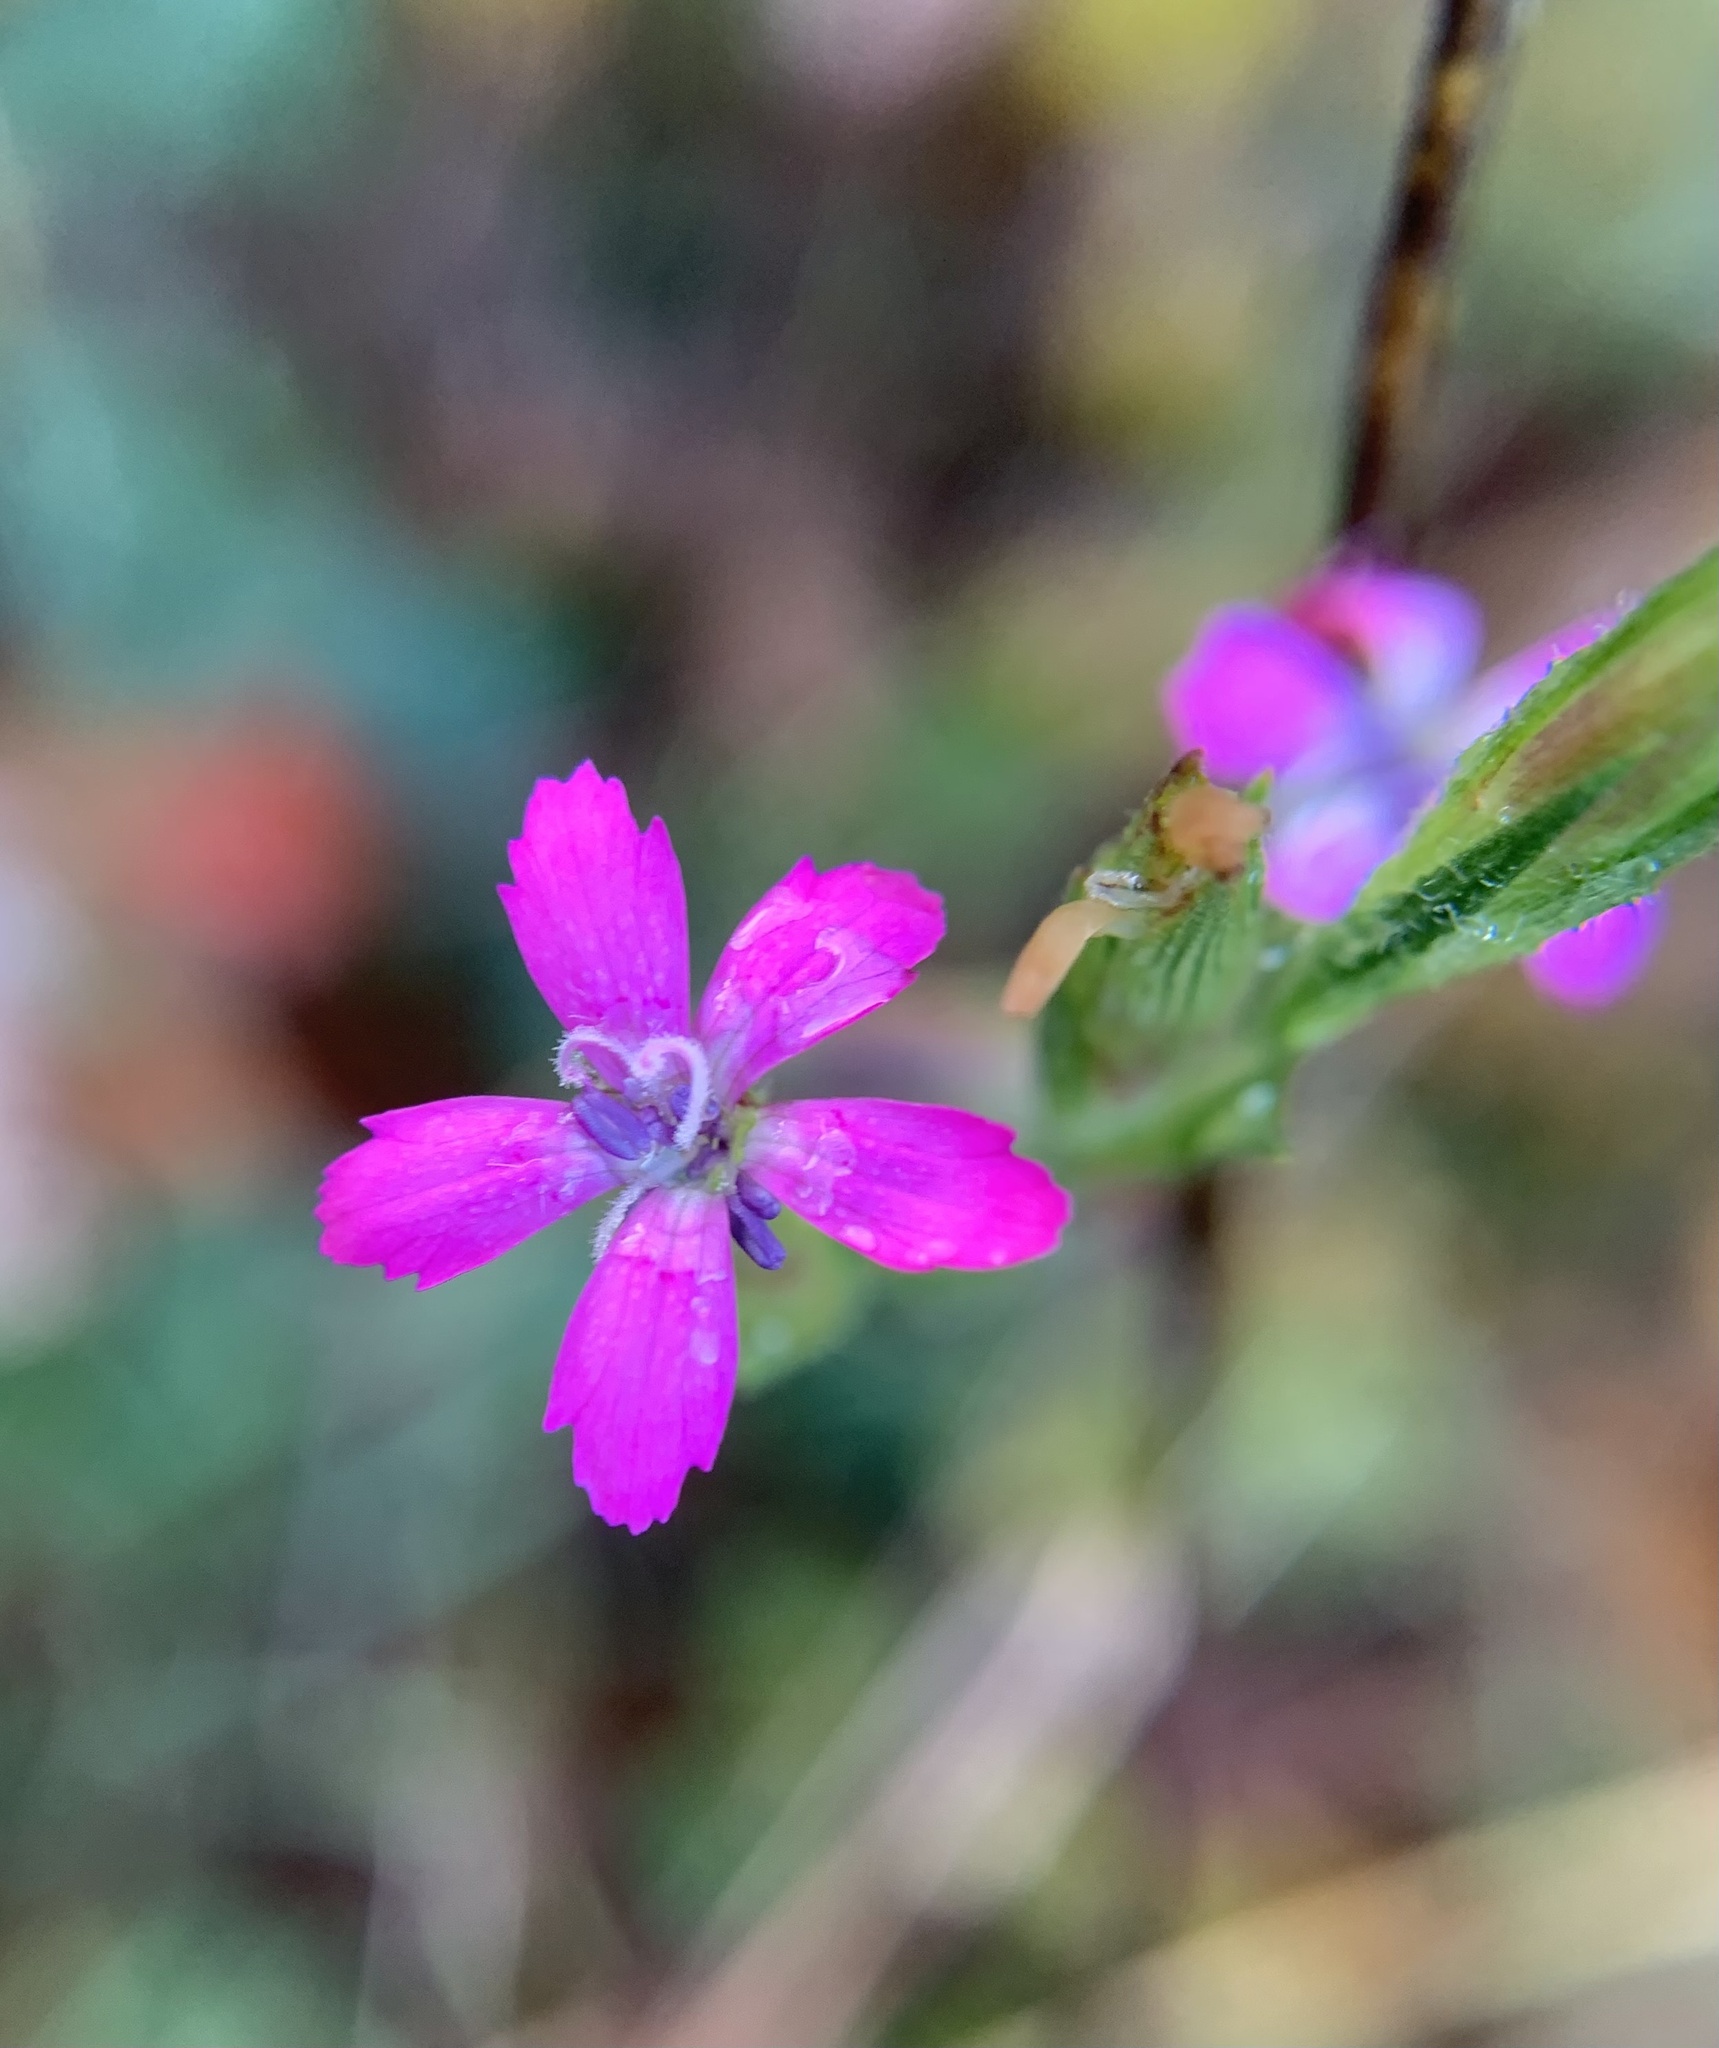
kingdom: Plantae
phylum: Tracheophyta
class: Magnoliopsida
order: Caryophyllales
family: Caryophyllaceae
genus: Dianthus
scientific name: Dianthus armeria
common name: Deptford pink
